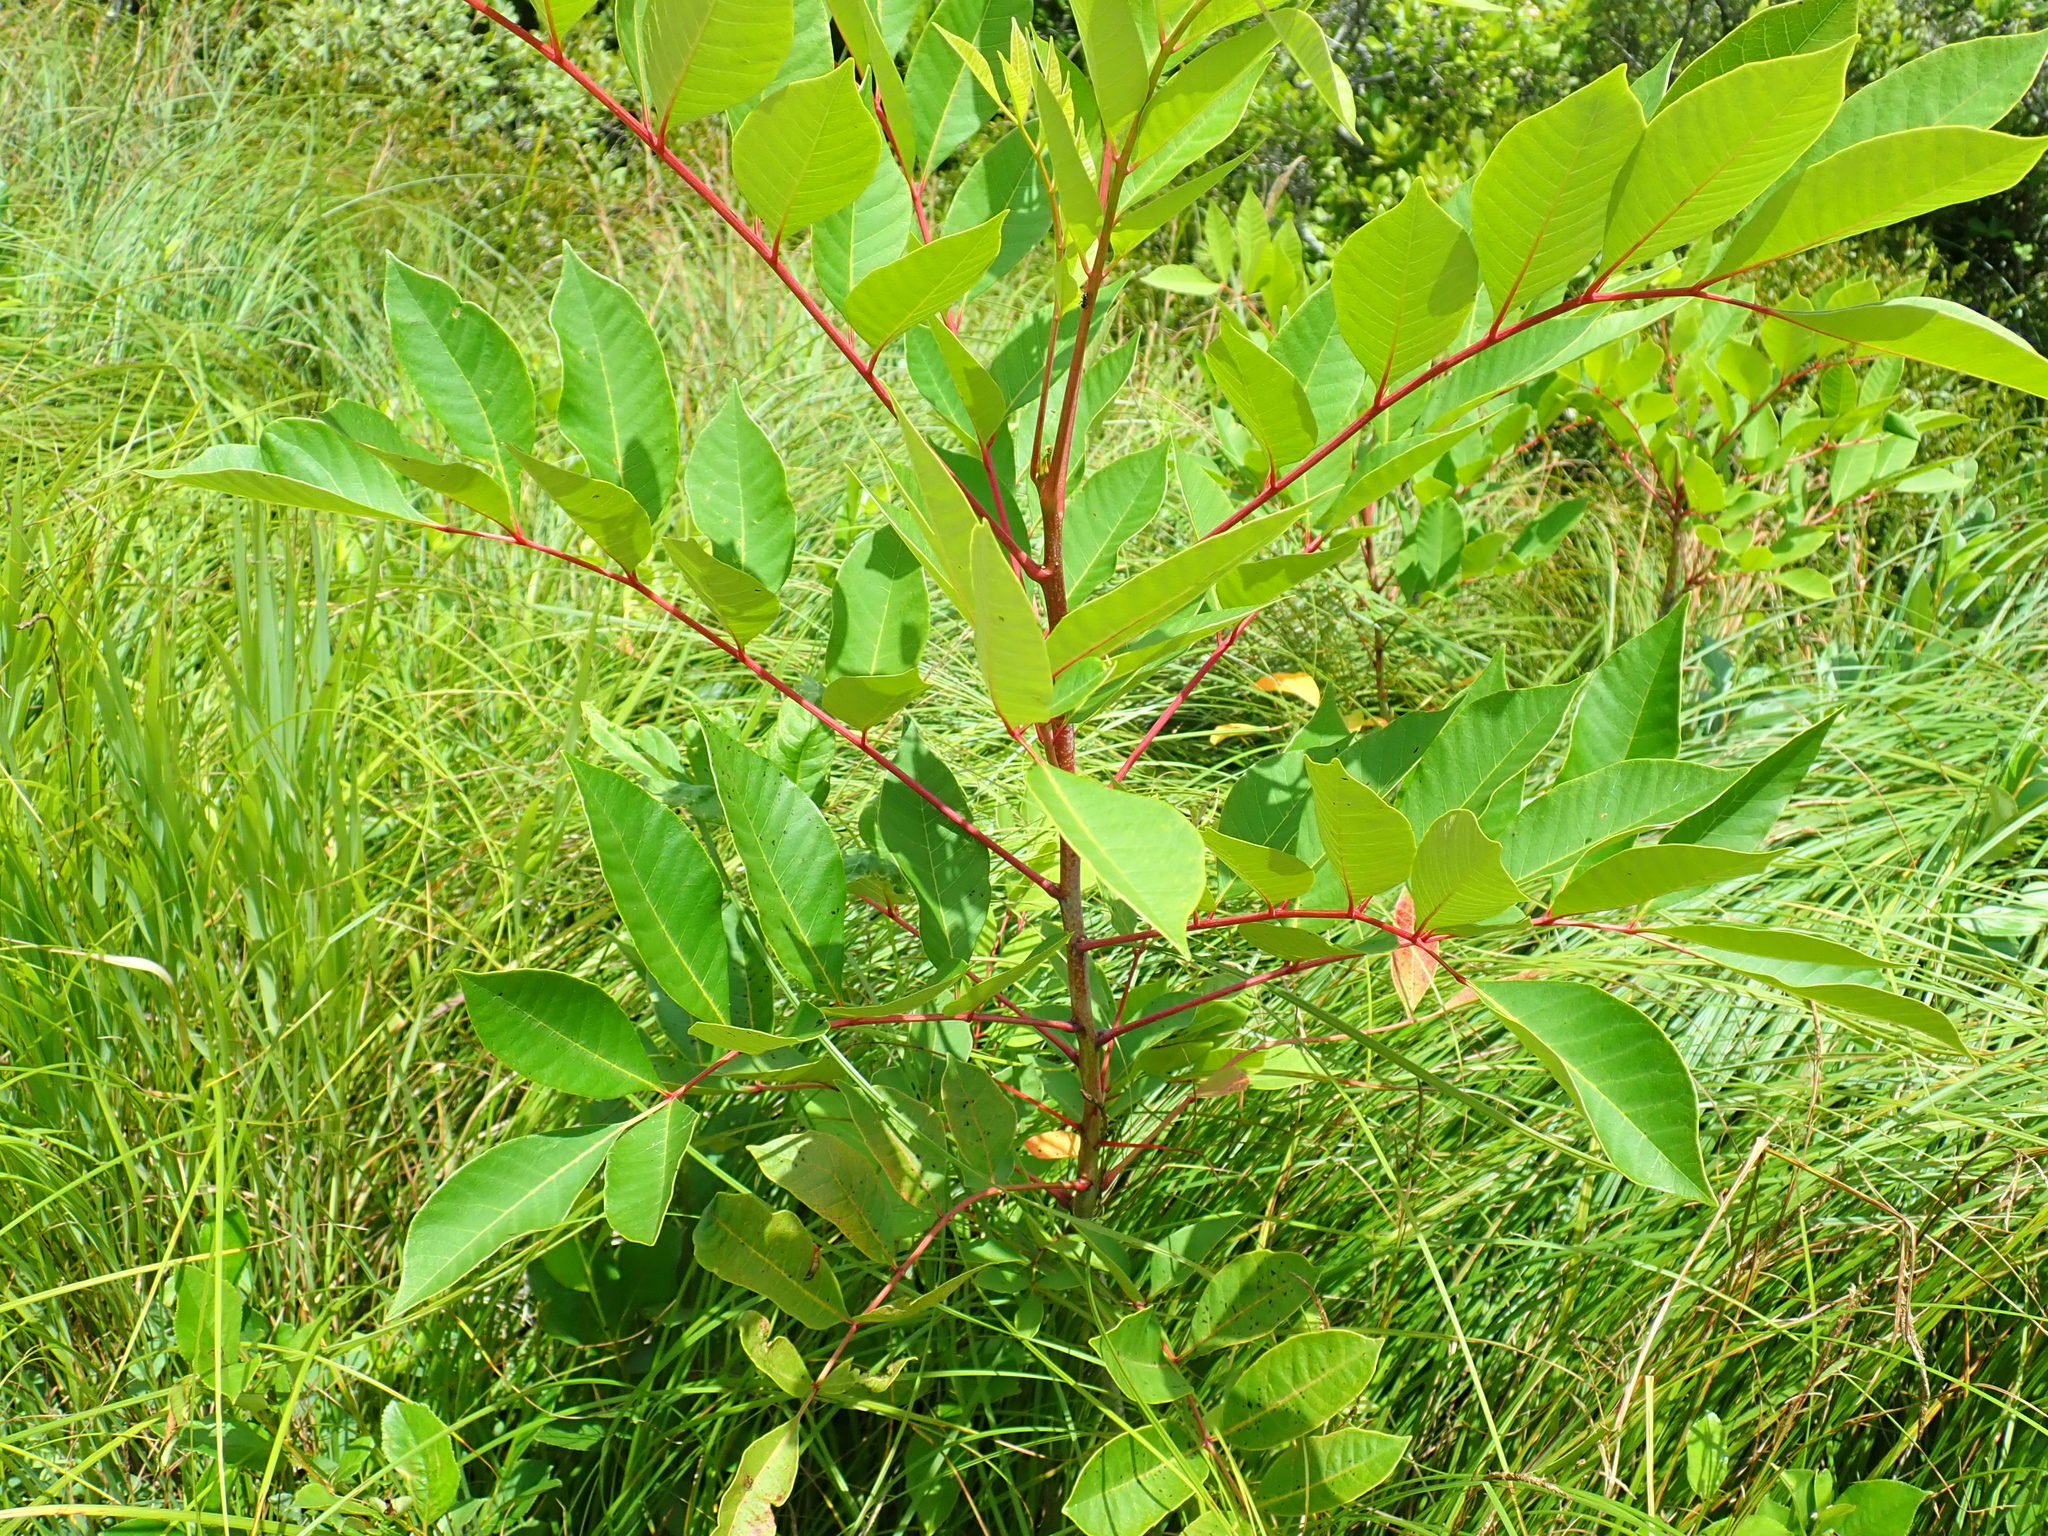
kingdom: Plantae
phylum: Tracheophyta
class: Magnoliopsida
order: Sapindales
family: Anacardiaceae
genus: Toxicodendron
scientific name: Toxicodendron vernix
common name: Poison sumac
